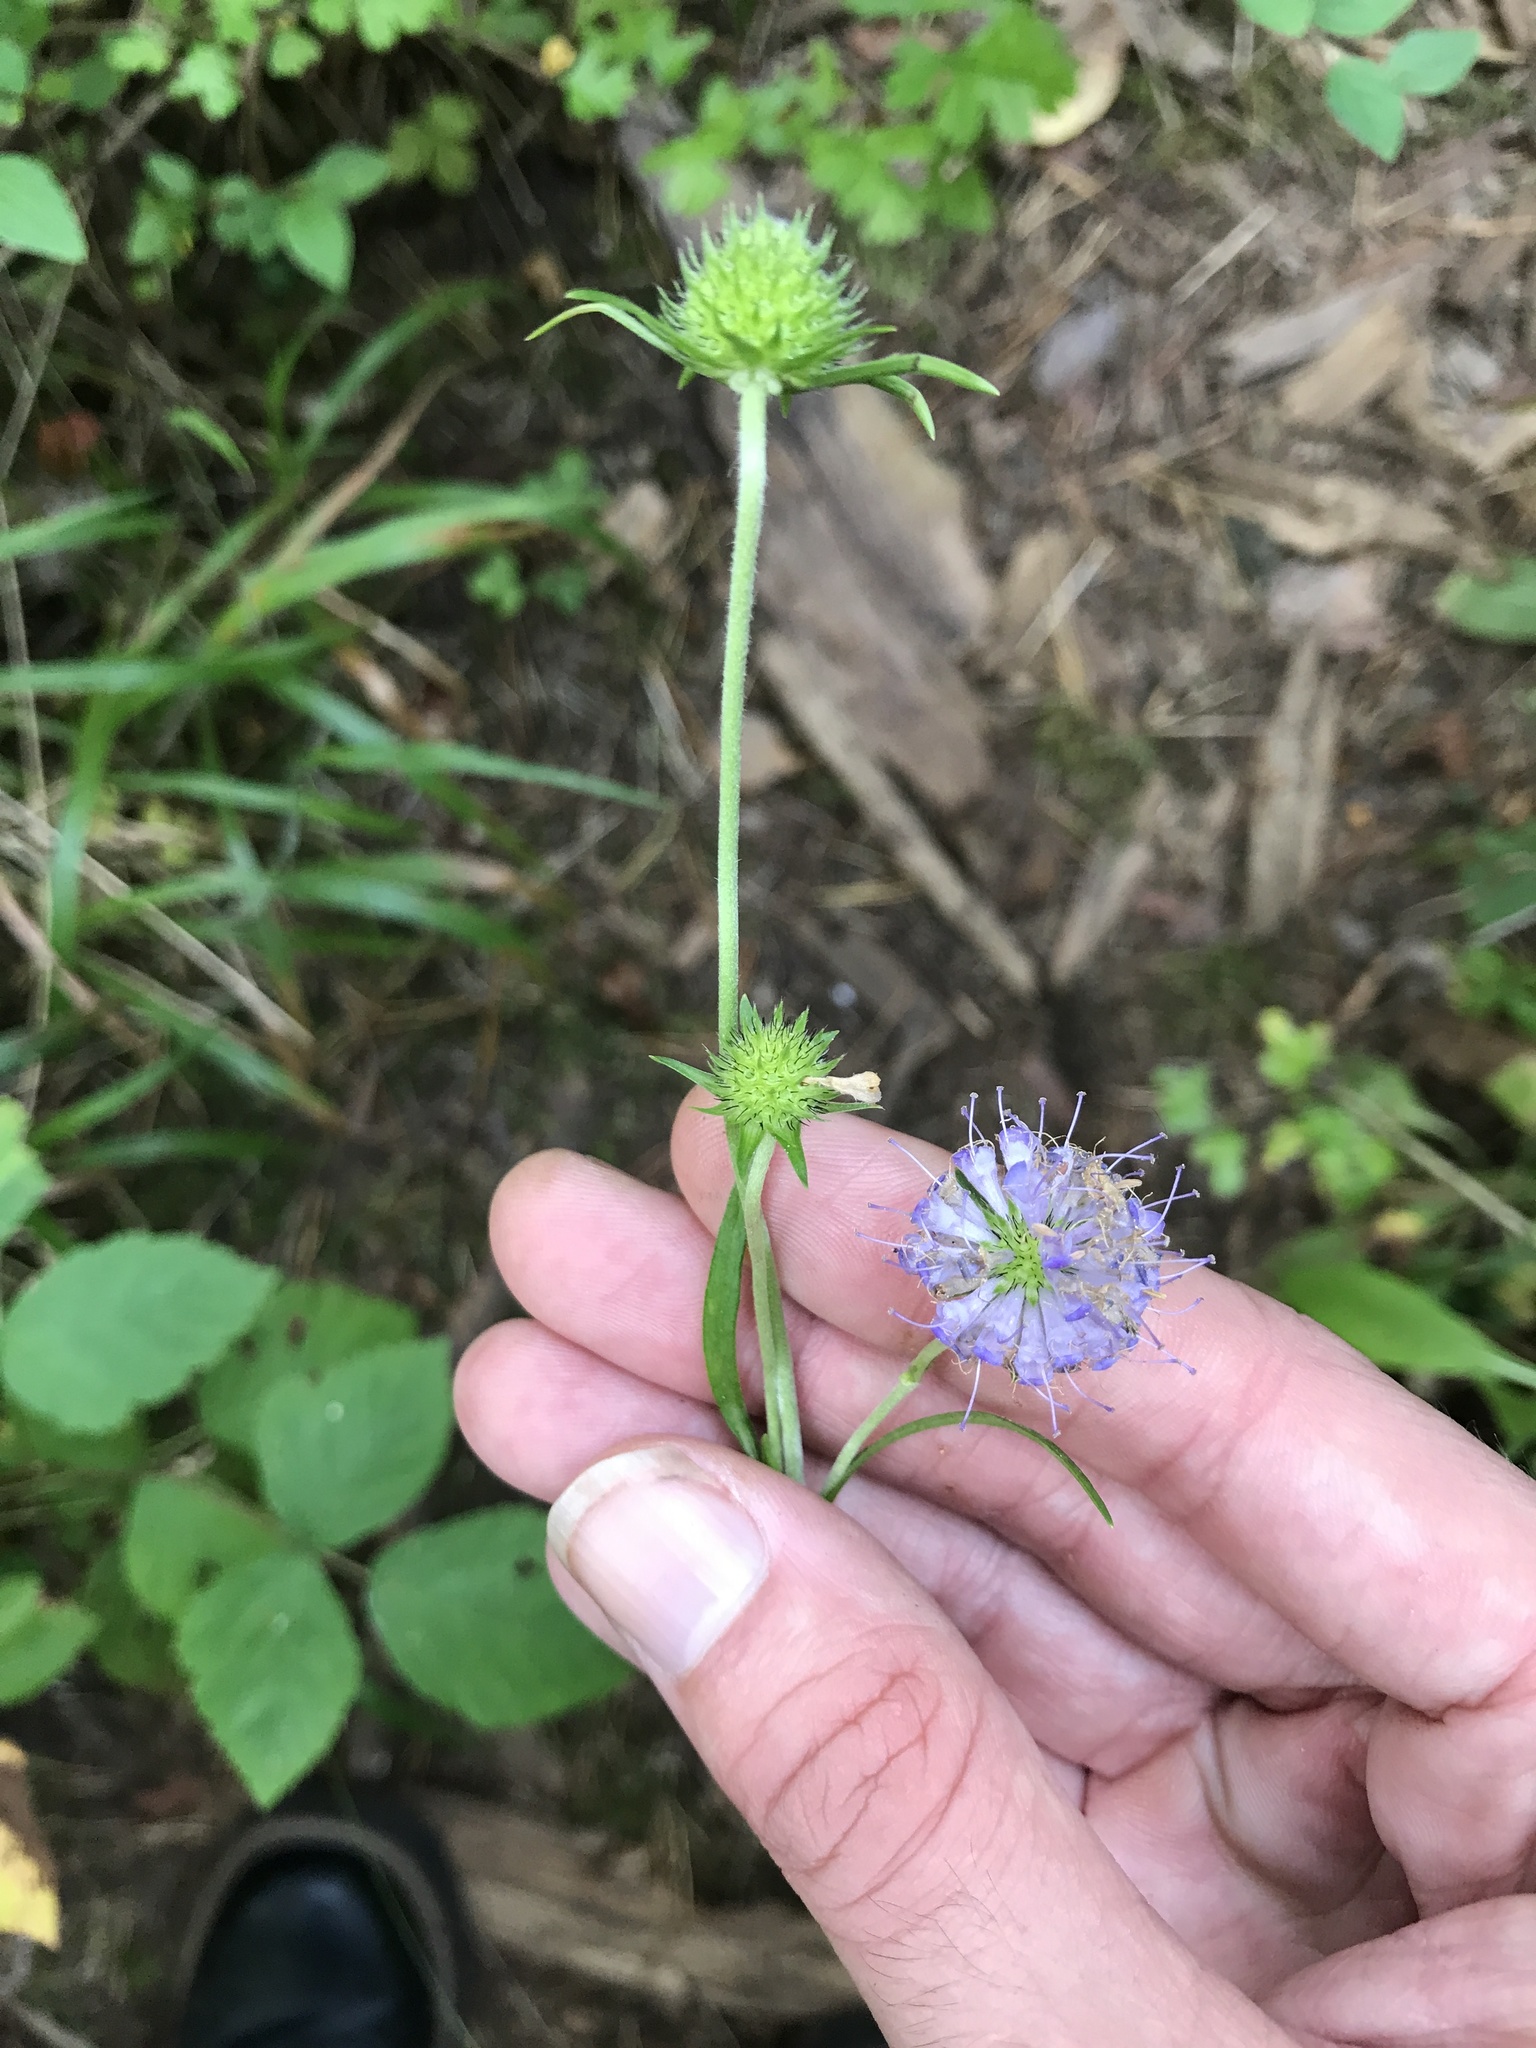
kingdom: Plantae
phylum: Tracheophyta
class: Magnoliopsida
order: Dipsacales
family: Caprifoliaceae
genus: Succisa
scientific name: Succisa pratensis
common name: Devil's-bit
